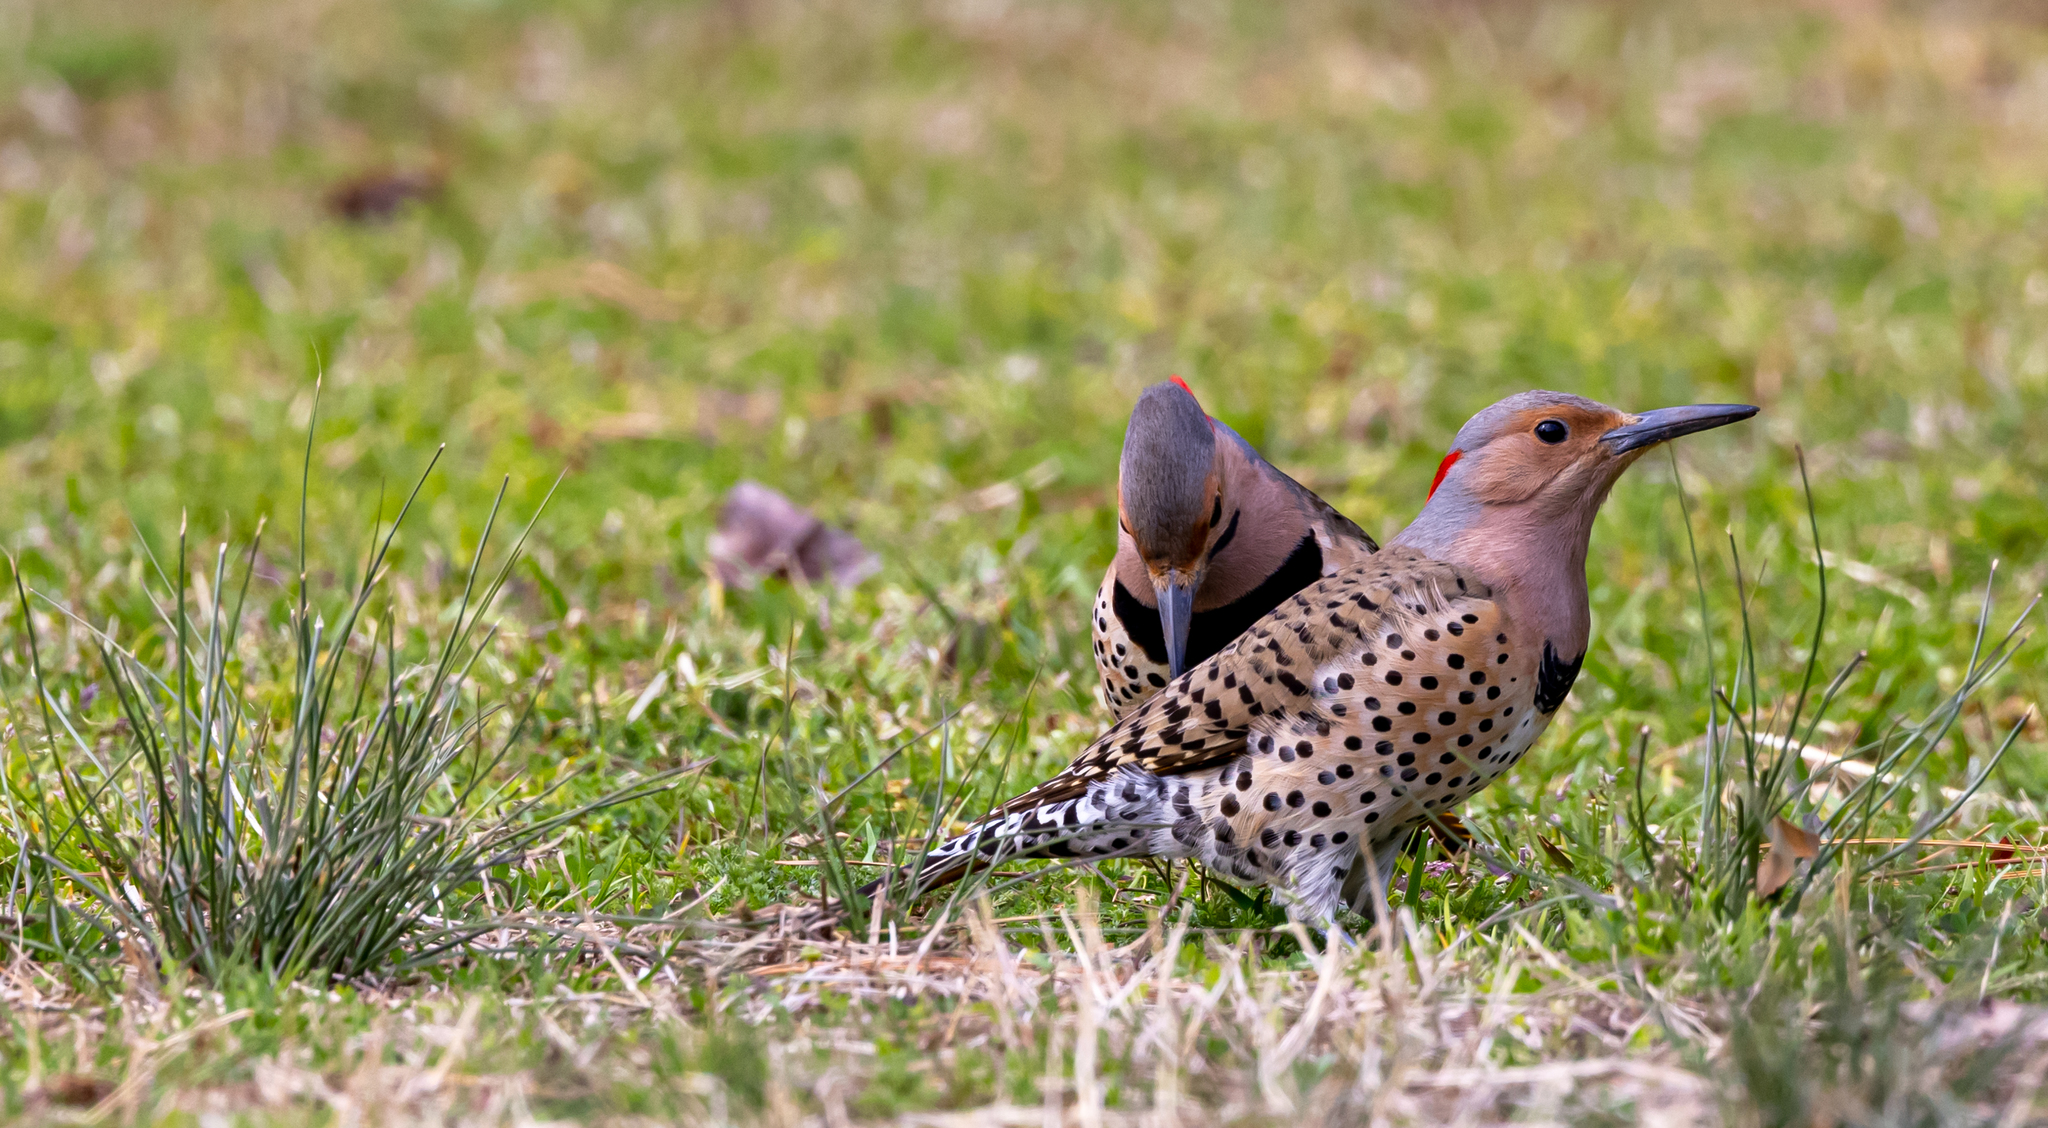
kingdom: Animalia
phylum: Chordata
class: Aves
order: Piciformes
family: Picidae
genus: Colaptes
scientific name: Colaptes auratus
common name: Northern flicker
